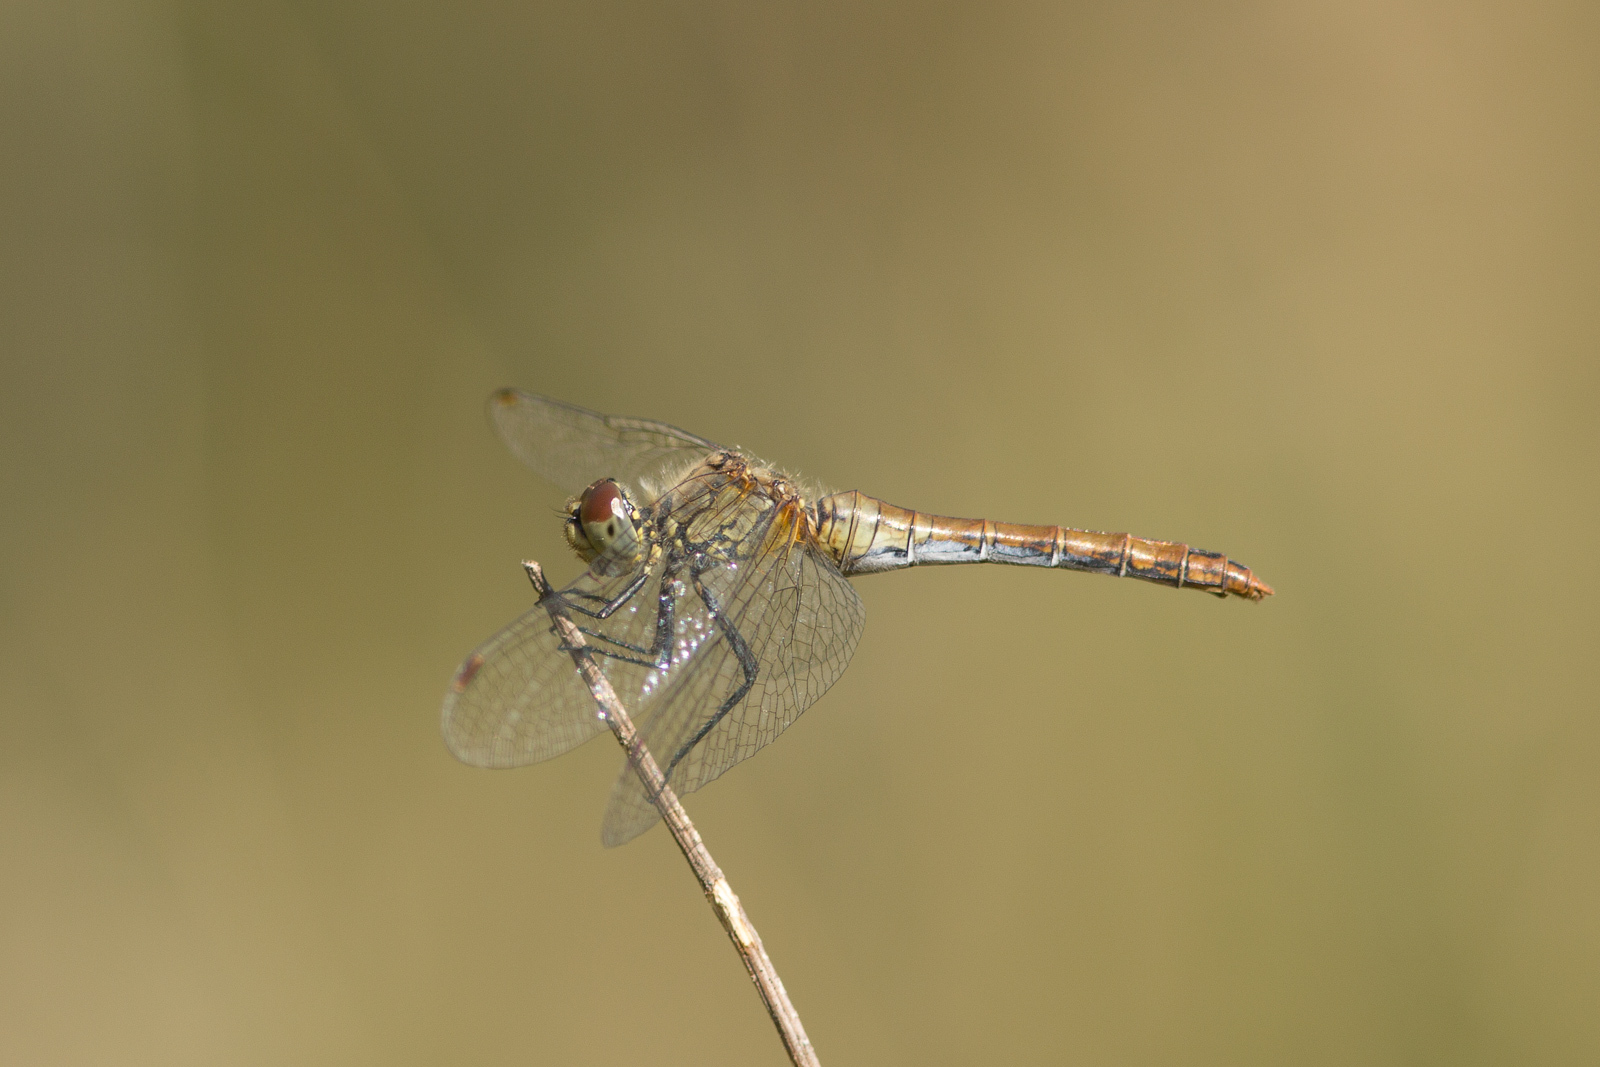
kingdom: Animalia
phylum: Arthropoda
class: Insecta
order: Odonata
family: Libellulidae
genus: Sympetrum
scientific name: Sympetrum sanguineum
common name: Ruddy darter
